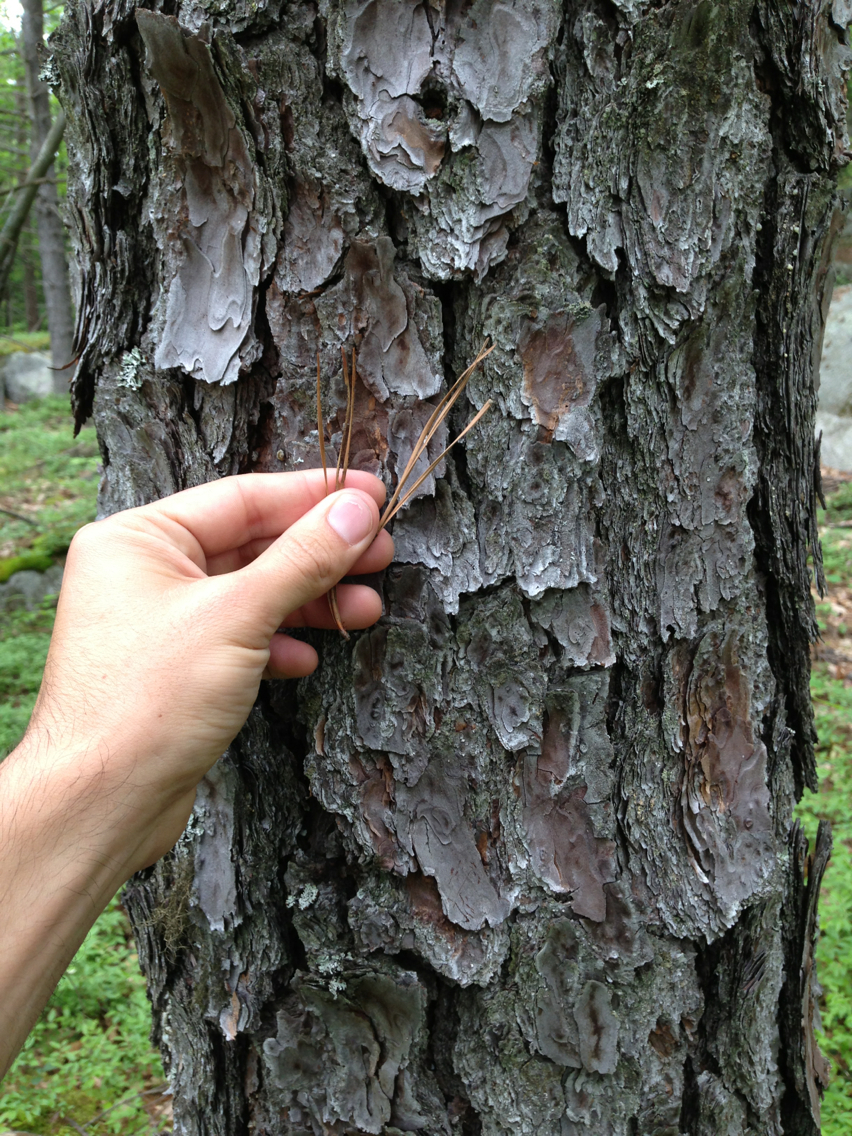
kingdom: Plantae
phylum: Tracheophyta
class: Pinopsida
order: Pinales
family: Pinaceae
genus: Pinus
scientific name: Pinus rigida
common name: Pitch pine
